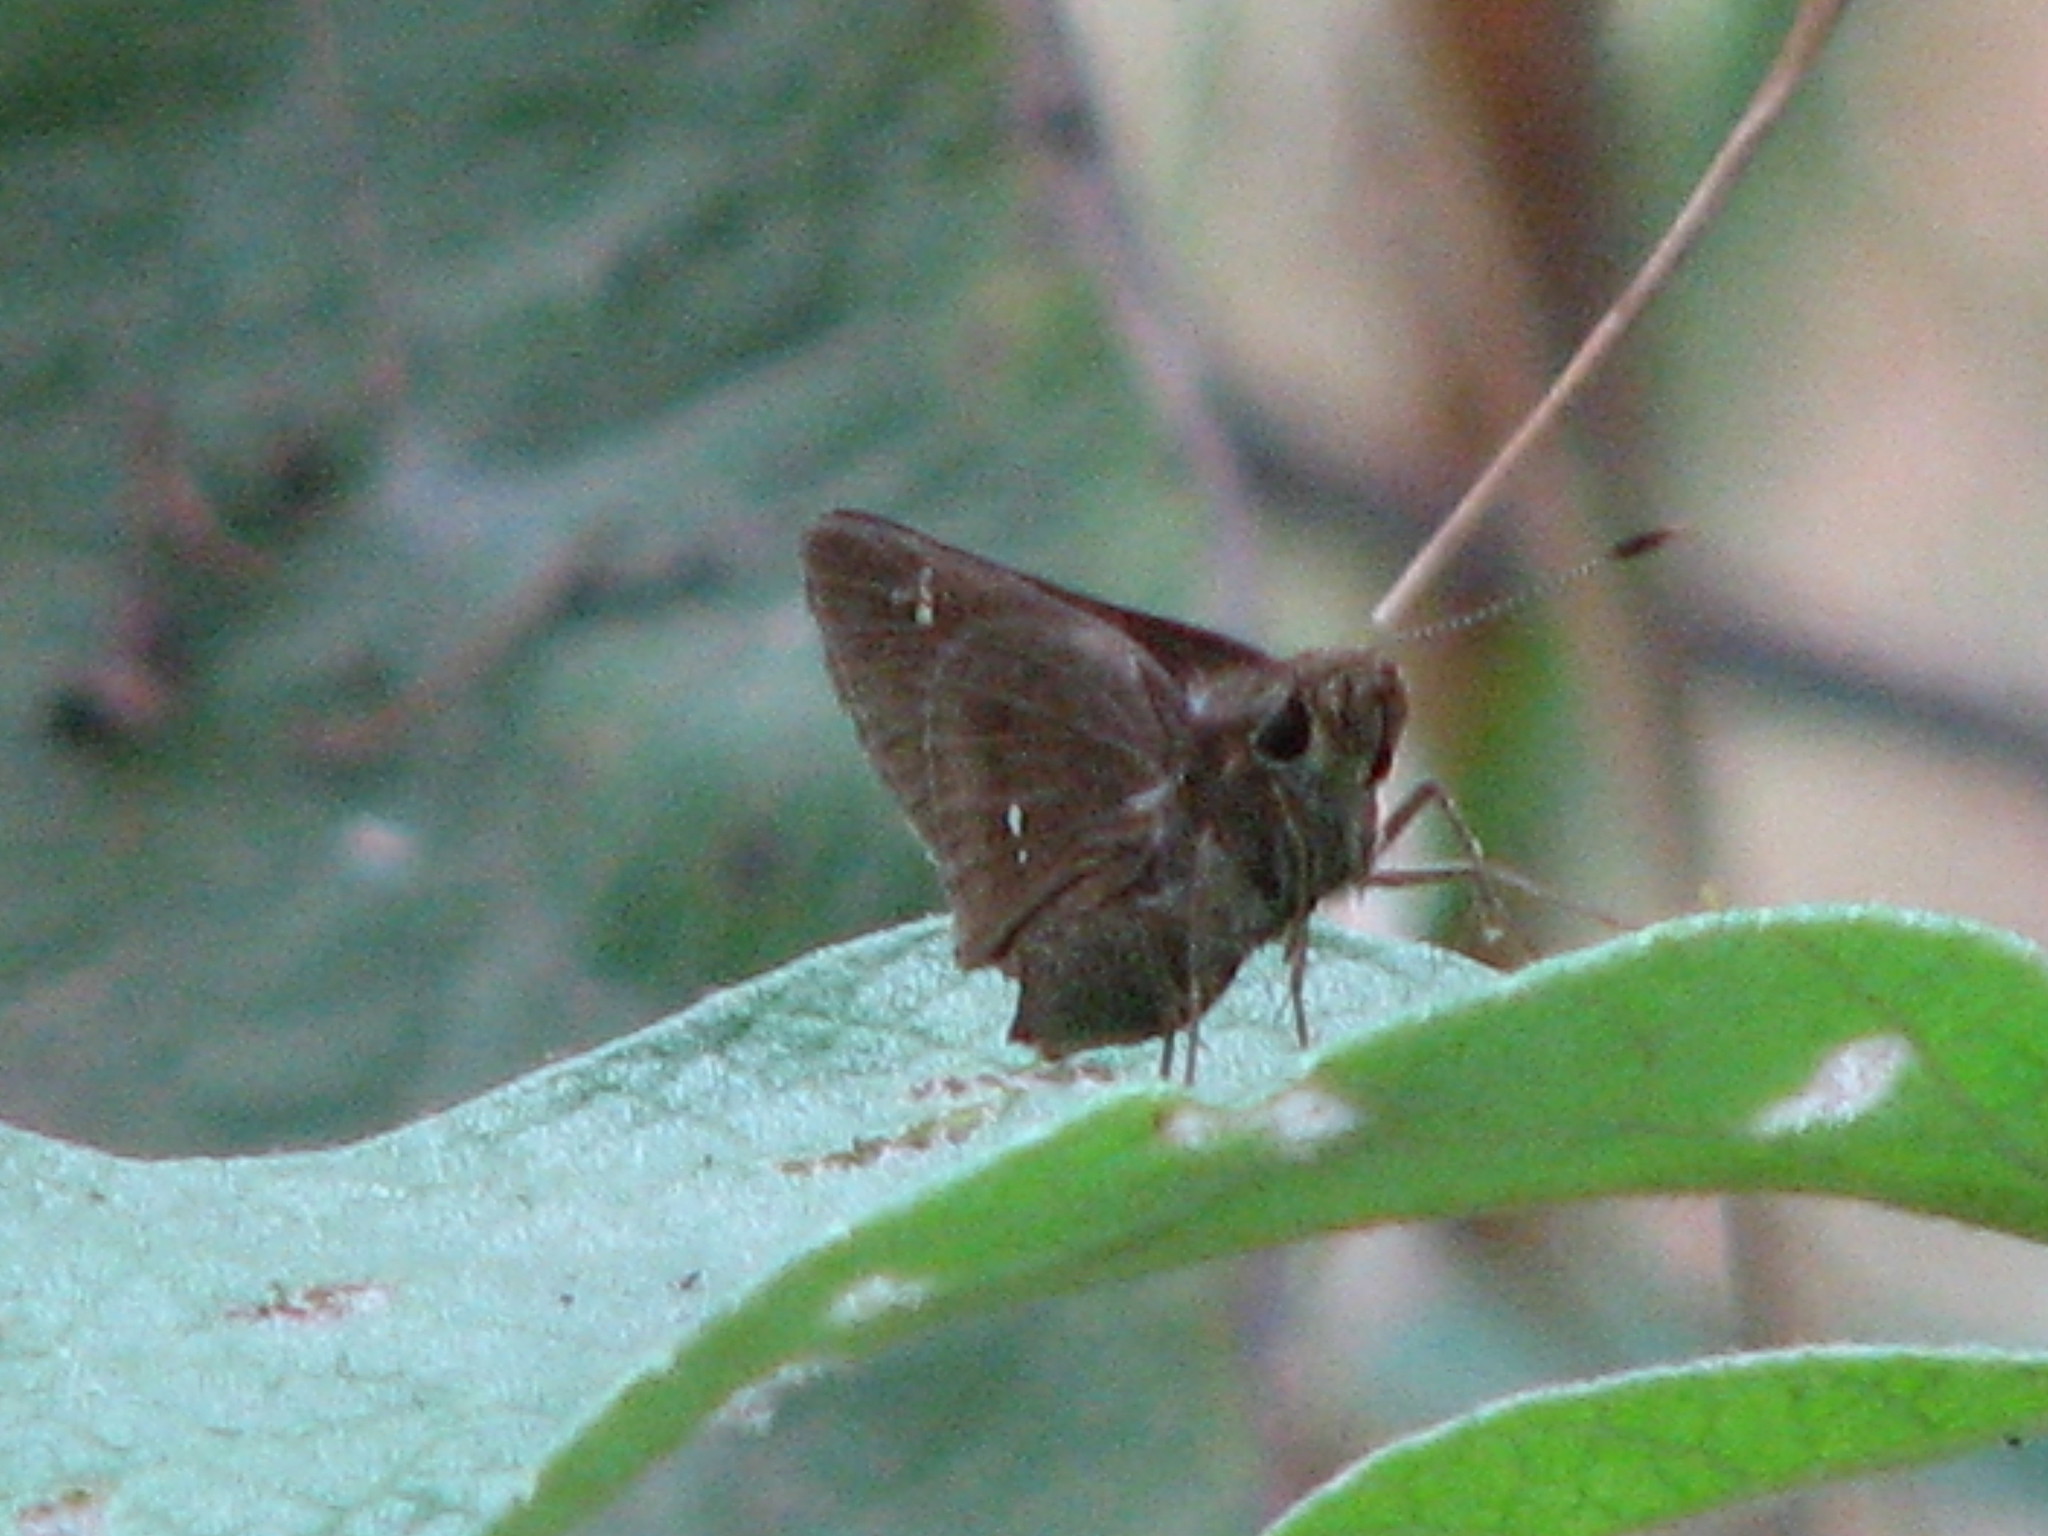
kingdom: Animalia
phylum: Arthropoda
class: Insecta
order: Lepidoptera
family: Hesperiidae
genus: Decinea
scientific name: Decinea percosius
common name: Double-dotted skipper
